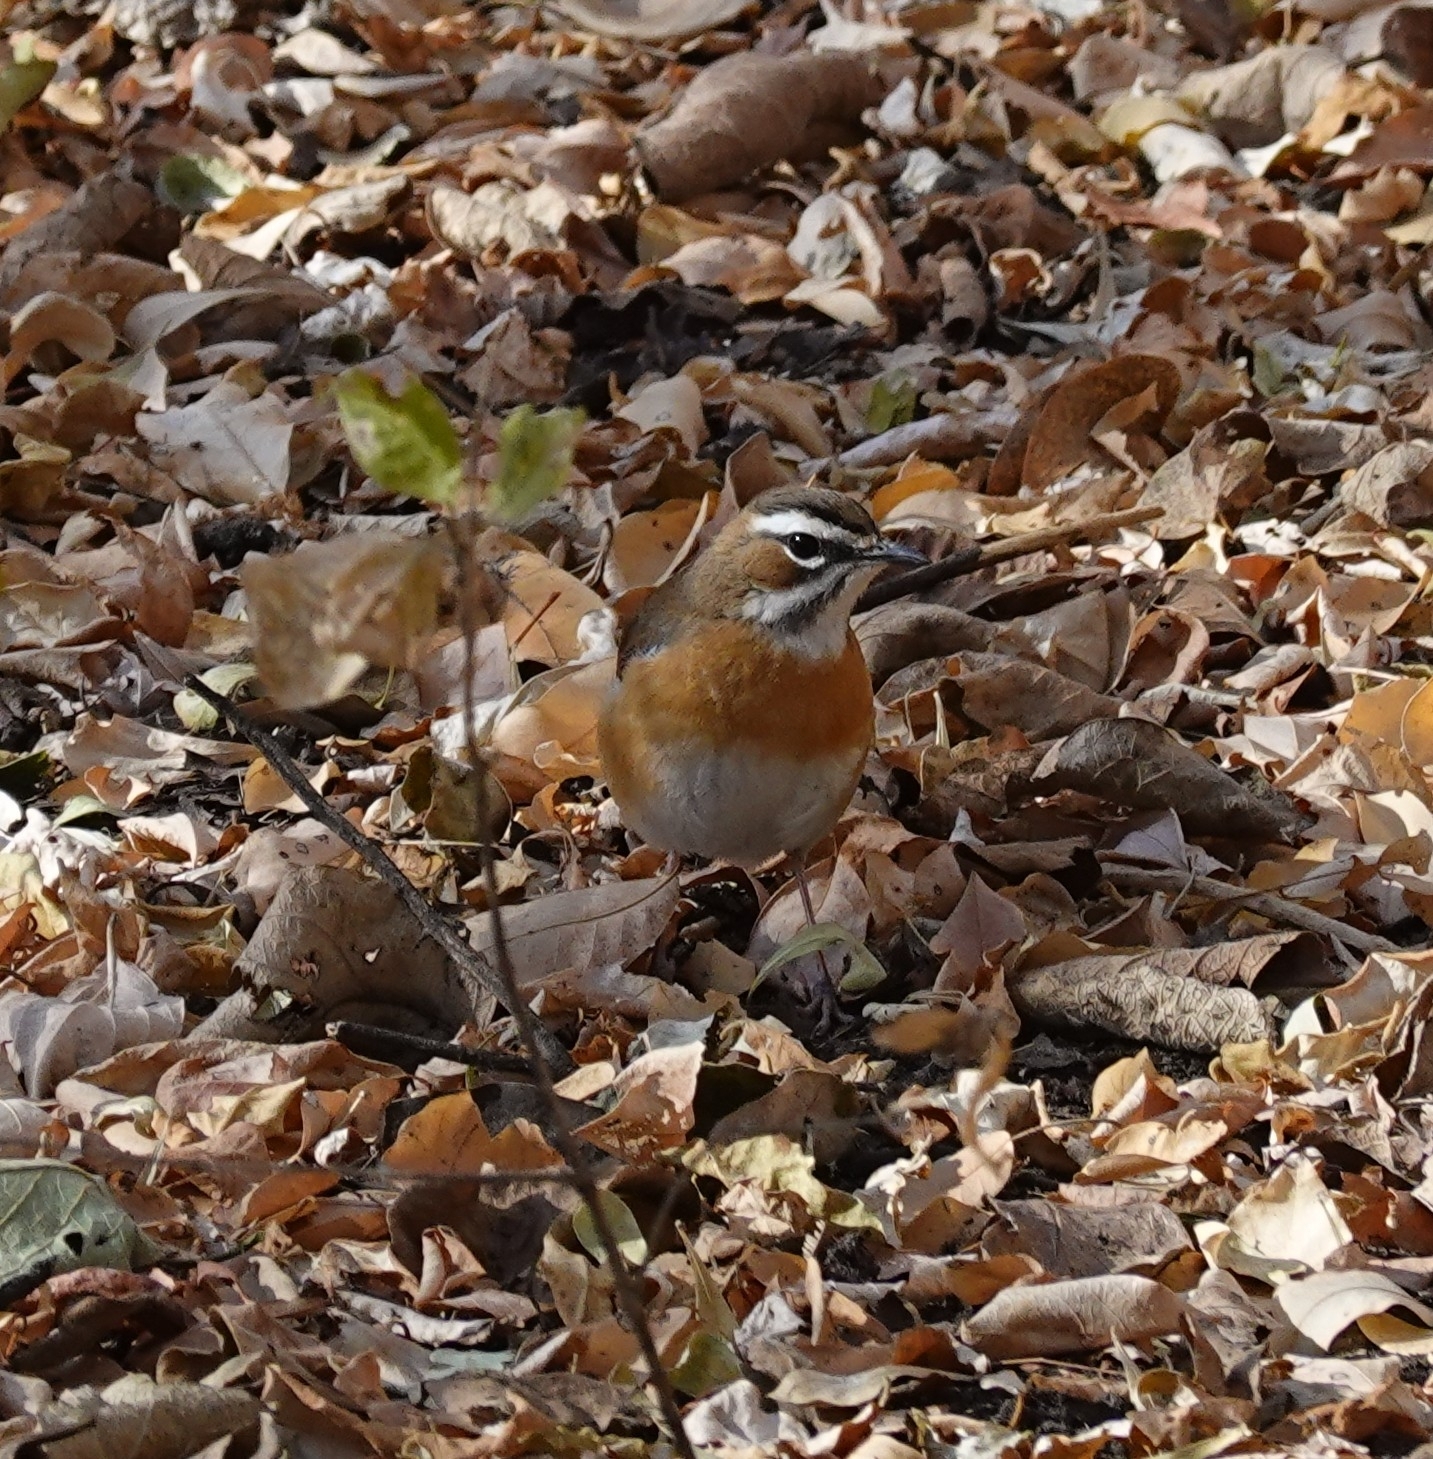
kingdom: Animalia
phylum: Chordata
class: Aves
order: Passeriformes
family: Muscicapidae
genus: Erythropygia
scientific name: Erythropygia quadrivirgata
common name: Bearded scrub robin
